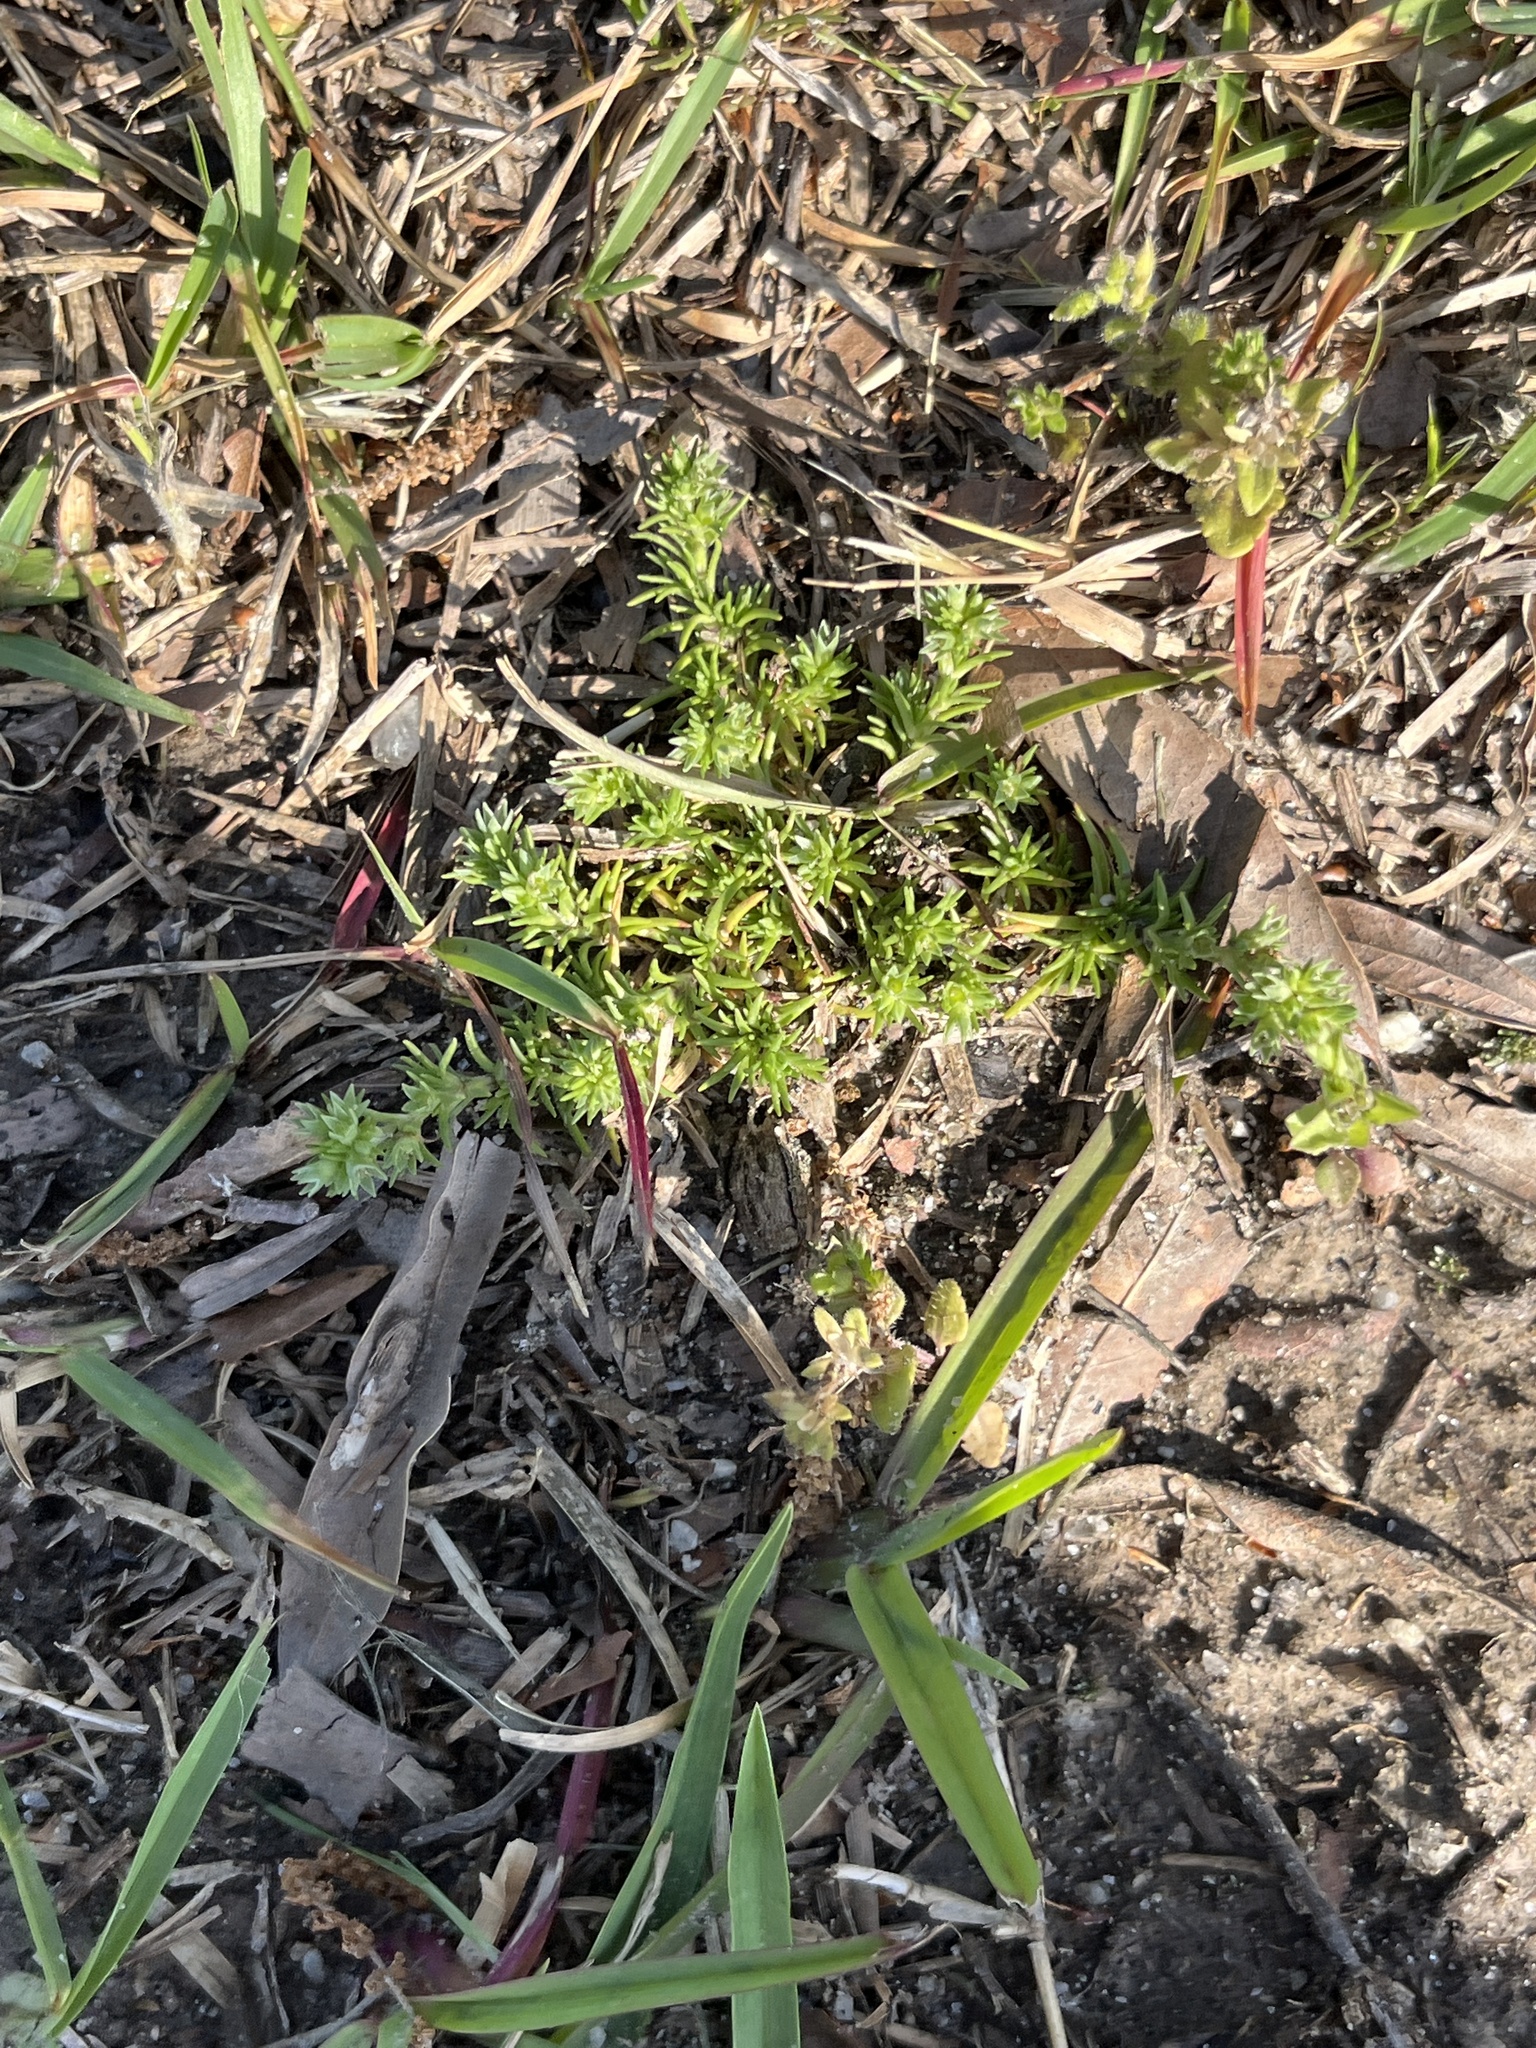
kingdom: Plantae
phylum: Tracheophyta
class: Magnoliopsida
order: Asterales
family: Asteraceae
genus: Facelis
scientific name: Facelis retusa
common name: Annual trampweed
